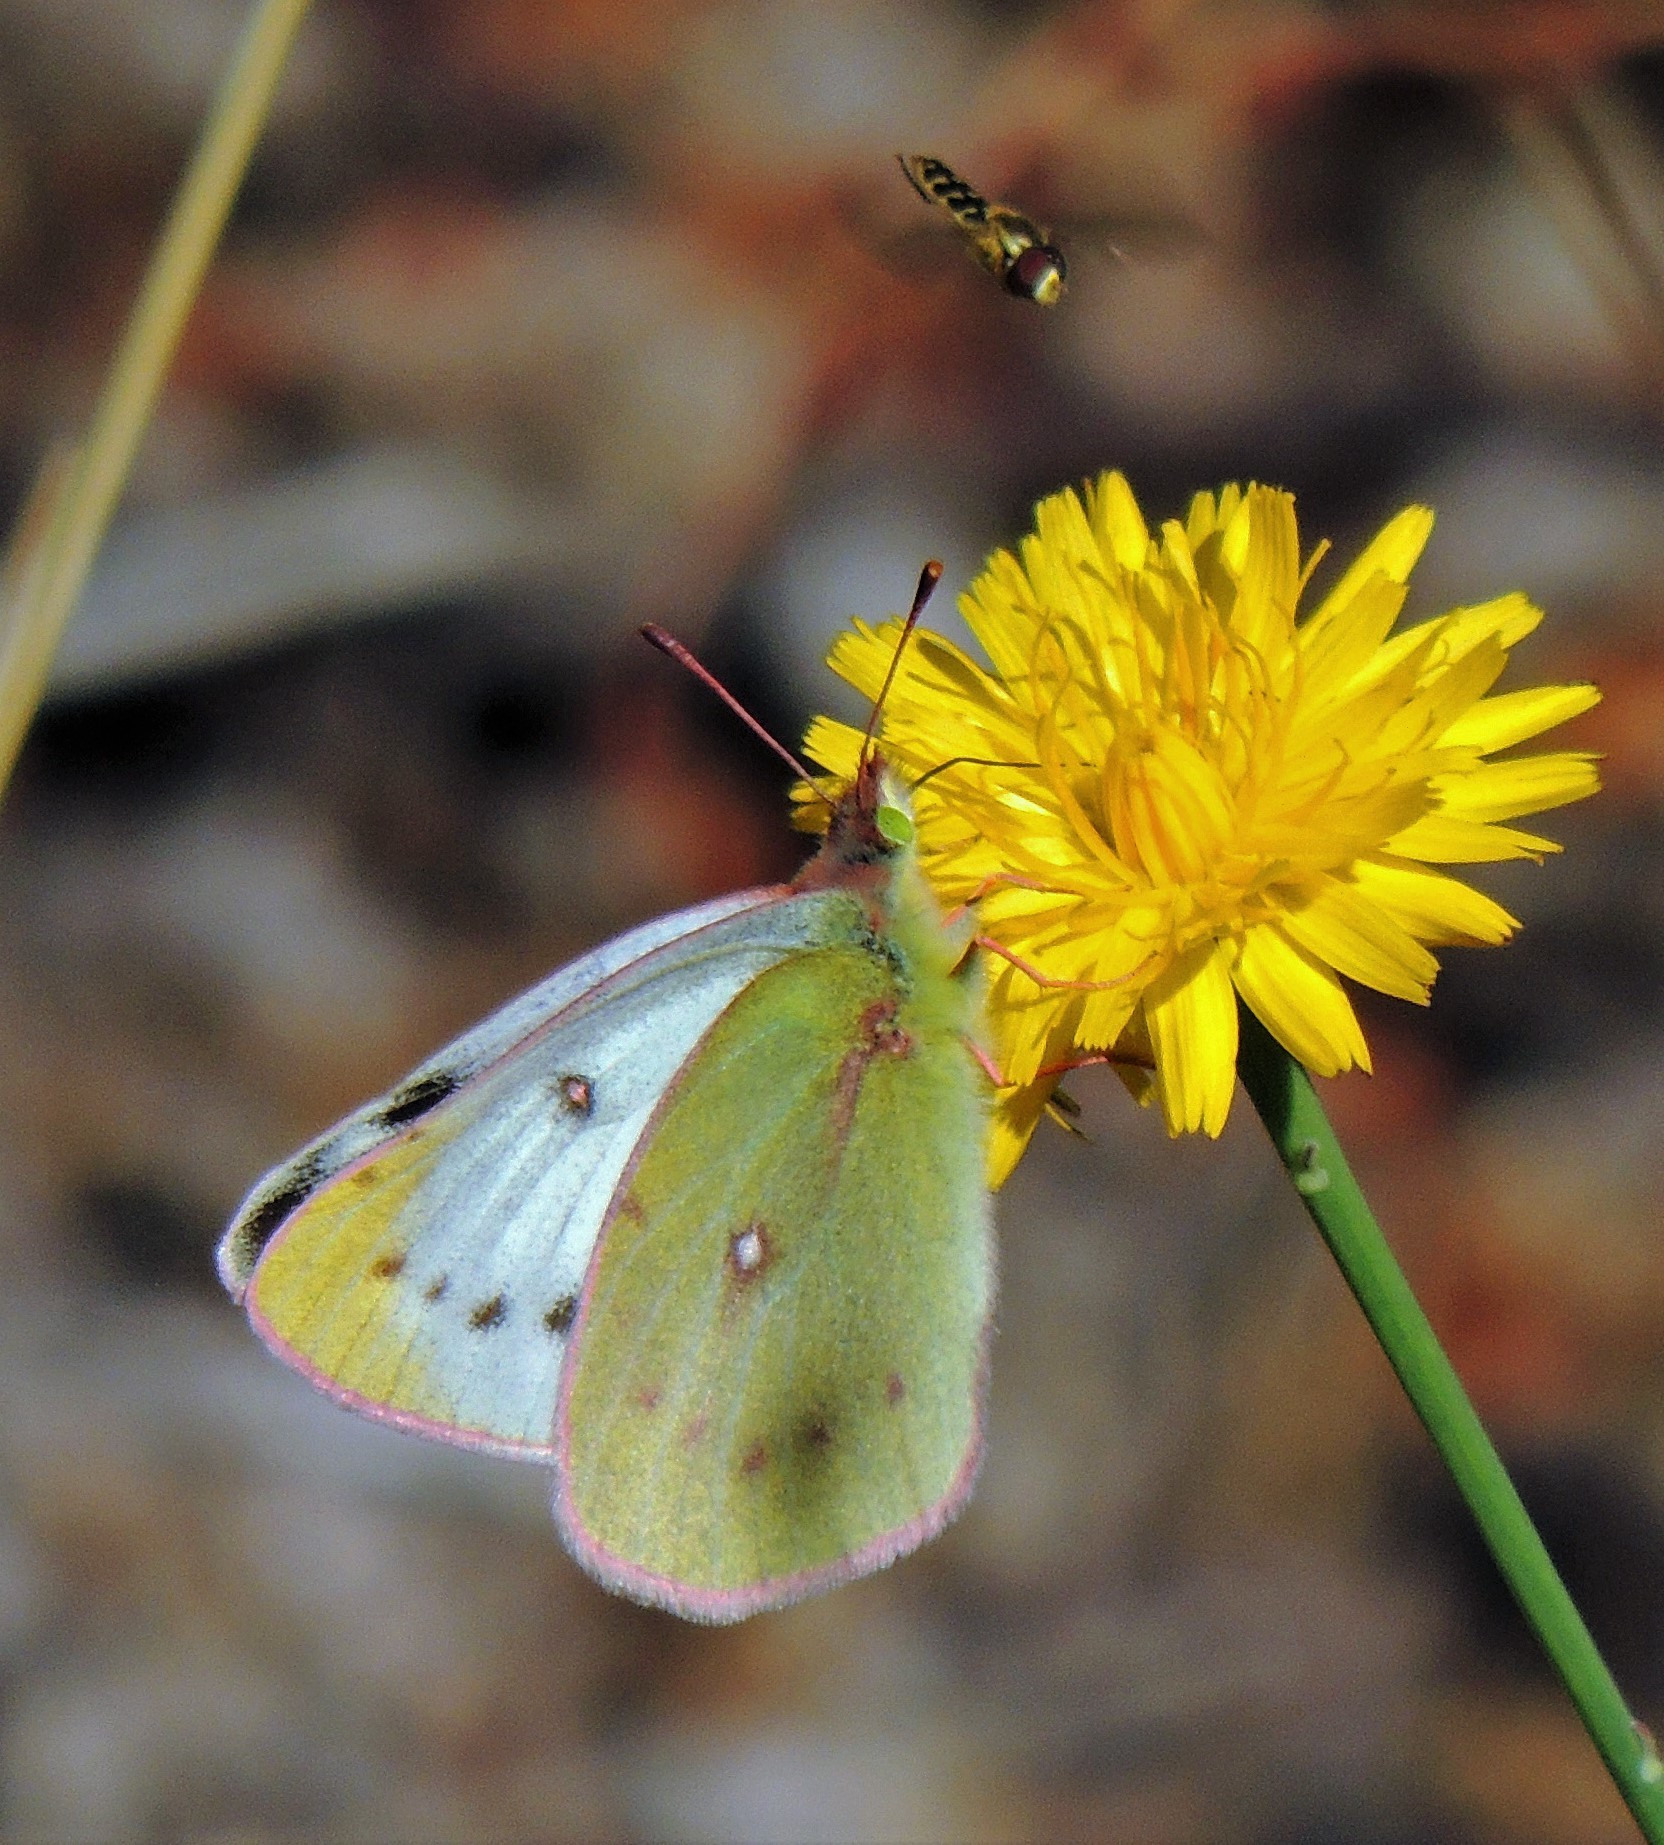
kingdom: Animalia
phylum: Arthropoda
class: Insecta
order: Lepidoptera
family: Pieridae
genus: Colias
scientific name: Colias vauthierii
